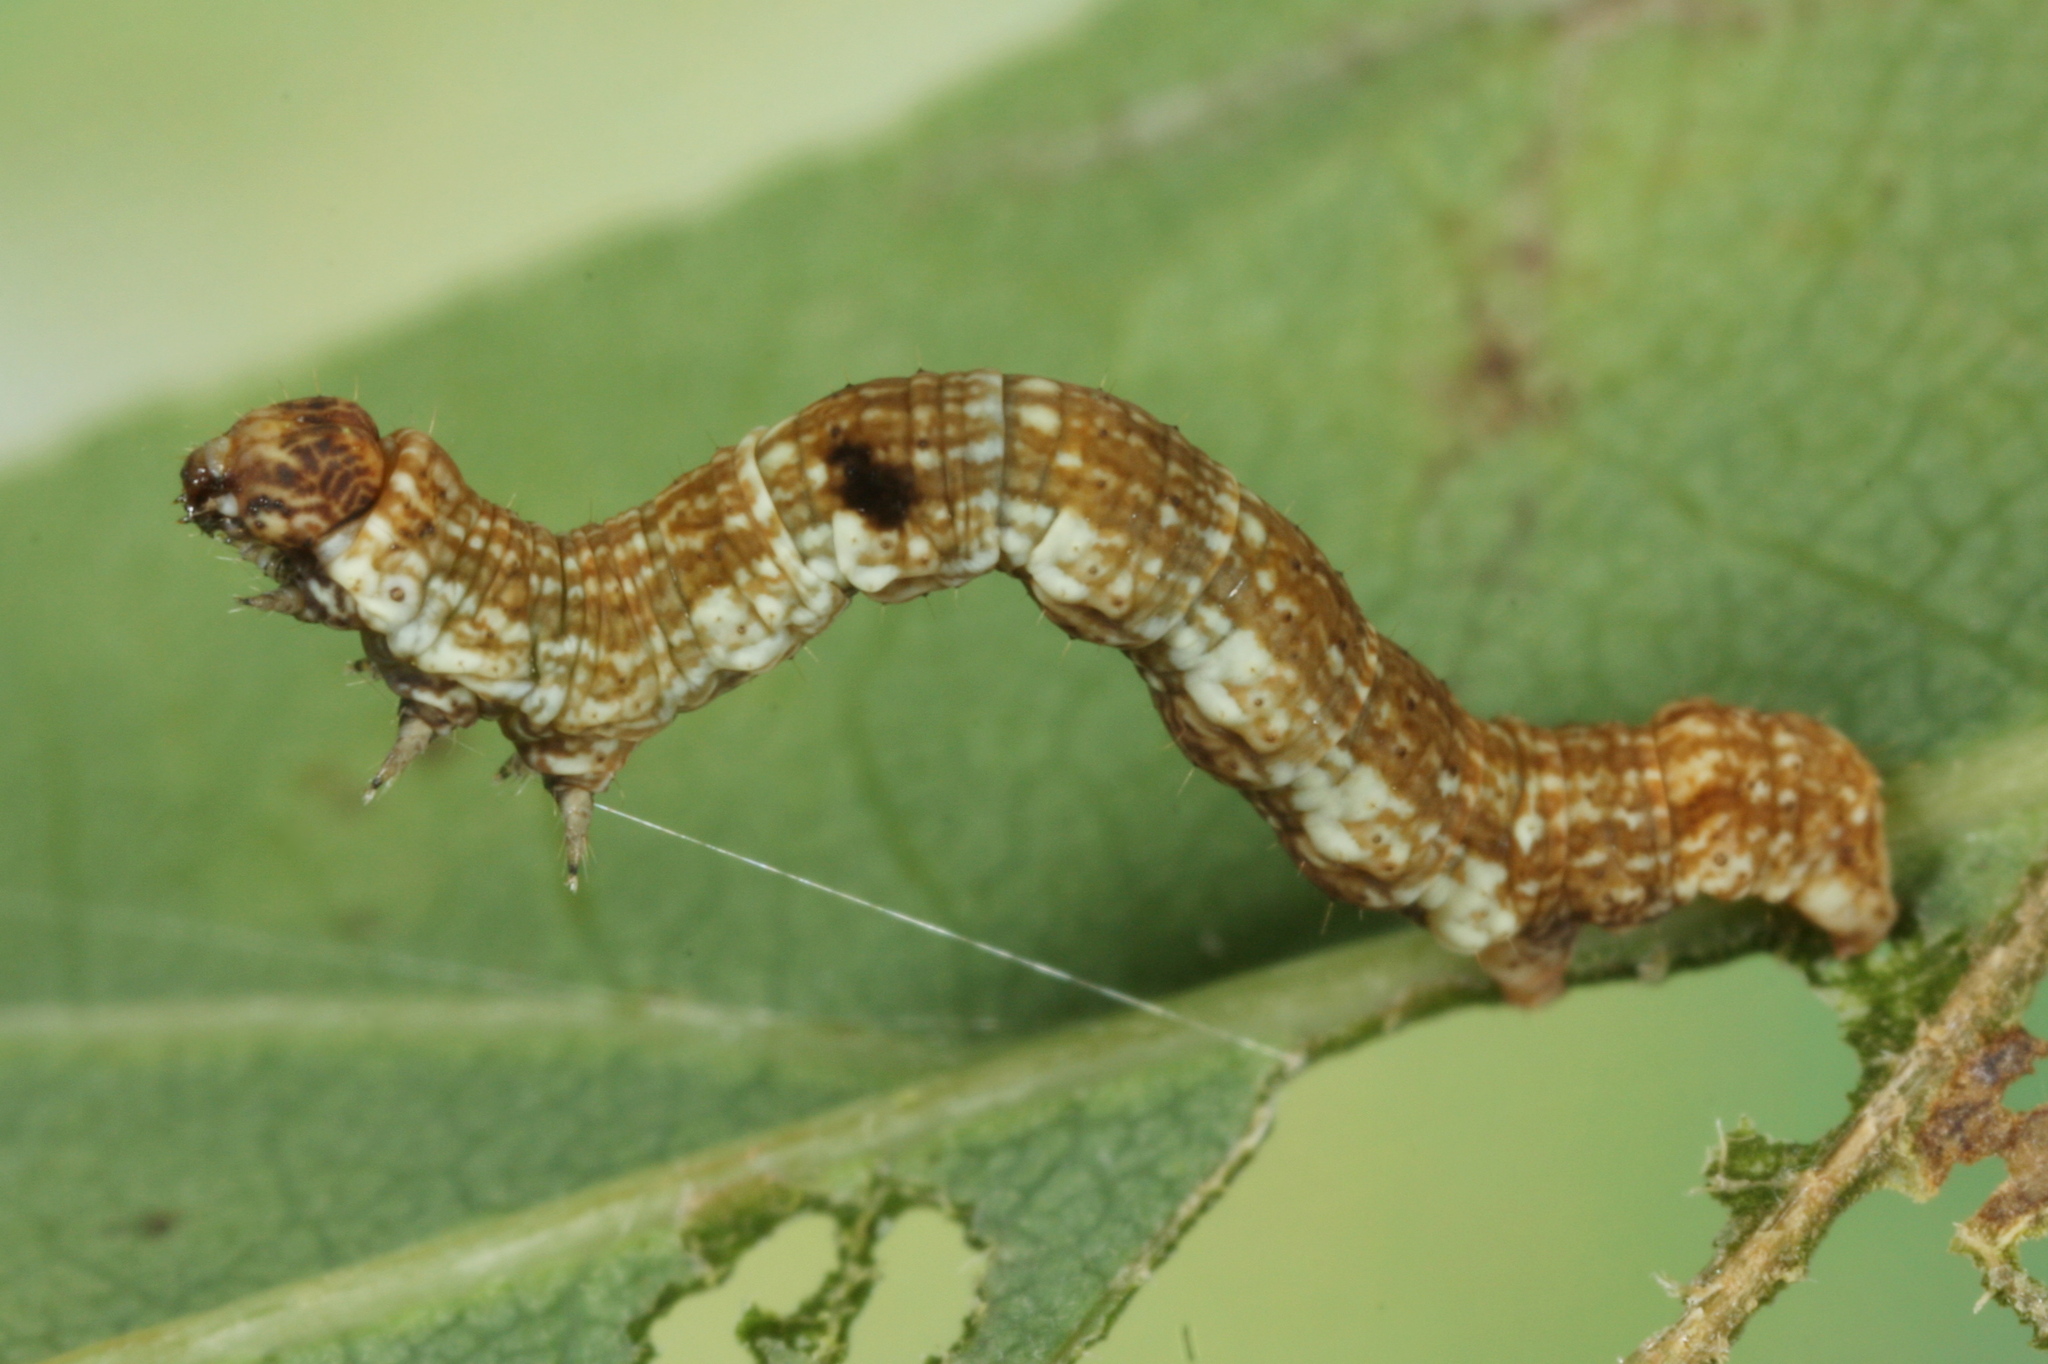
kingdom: Animalia
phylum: Arthropoda
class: Insecta
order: Lepidoptera
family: Geometridae
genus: Ectropis
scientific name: Ectropis crepuscularia
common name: Engrailed
